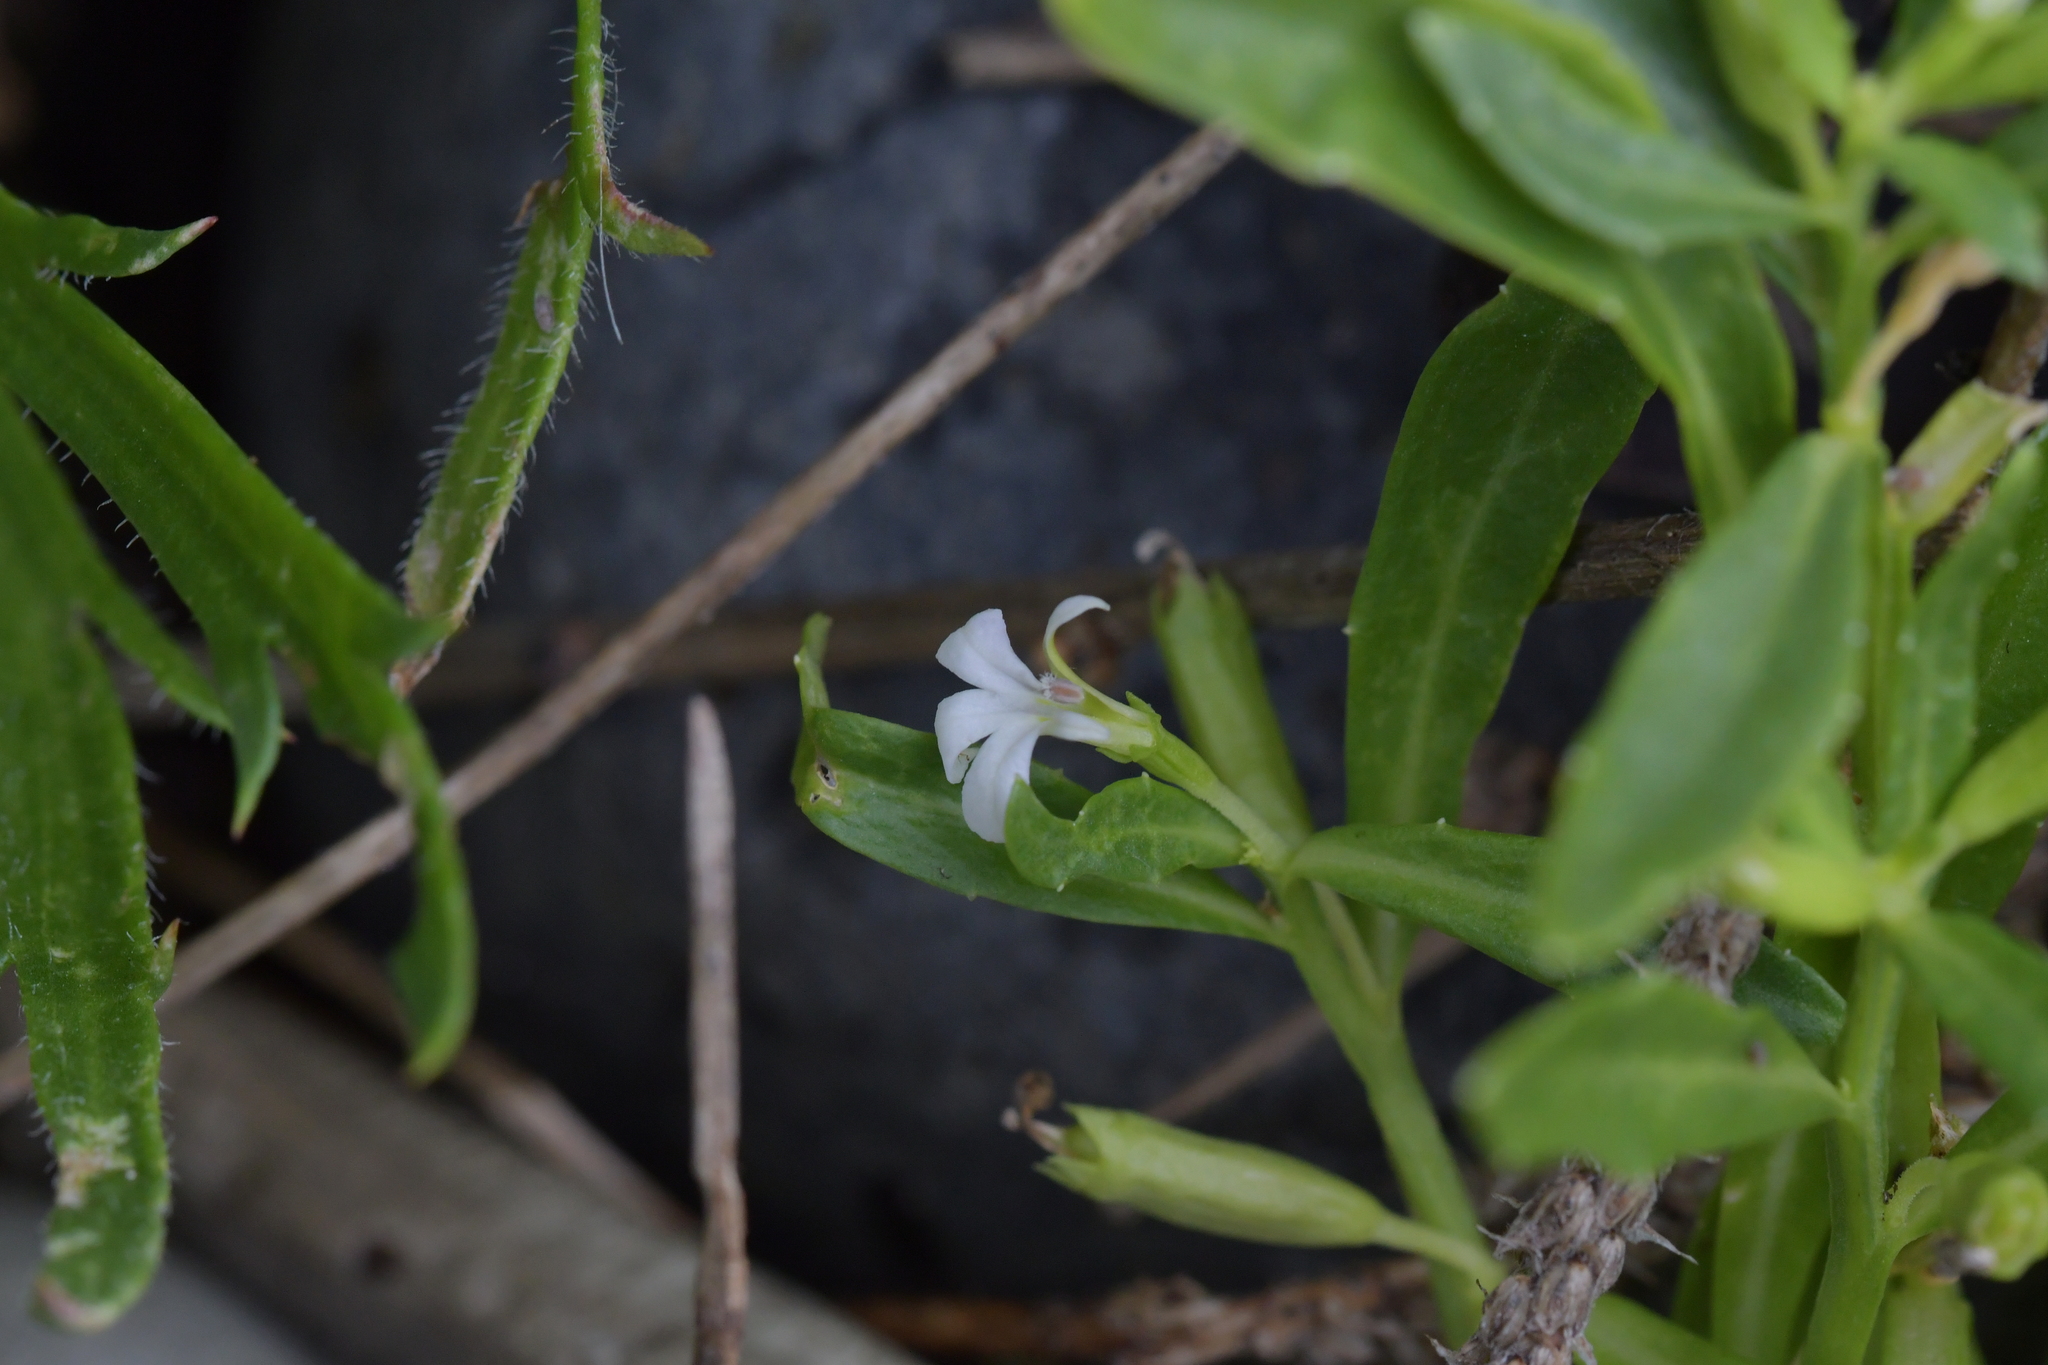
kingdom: Plantae
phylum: Tracheophyta
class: Magnoliopsida
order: Asterales
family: Campanulaceae
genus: Lobelia
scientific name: Lobelia anceps
